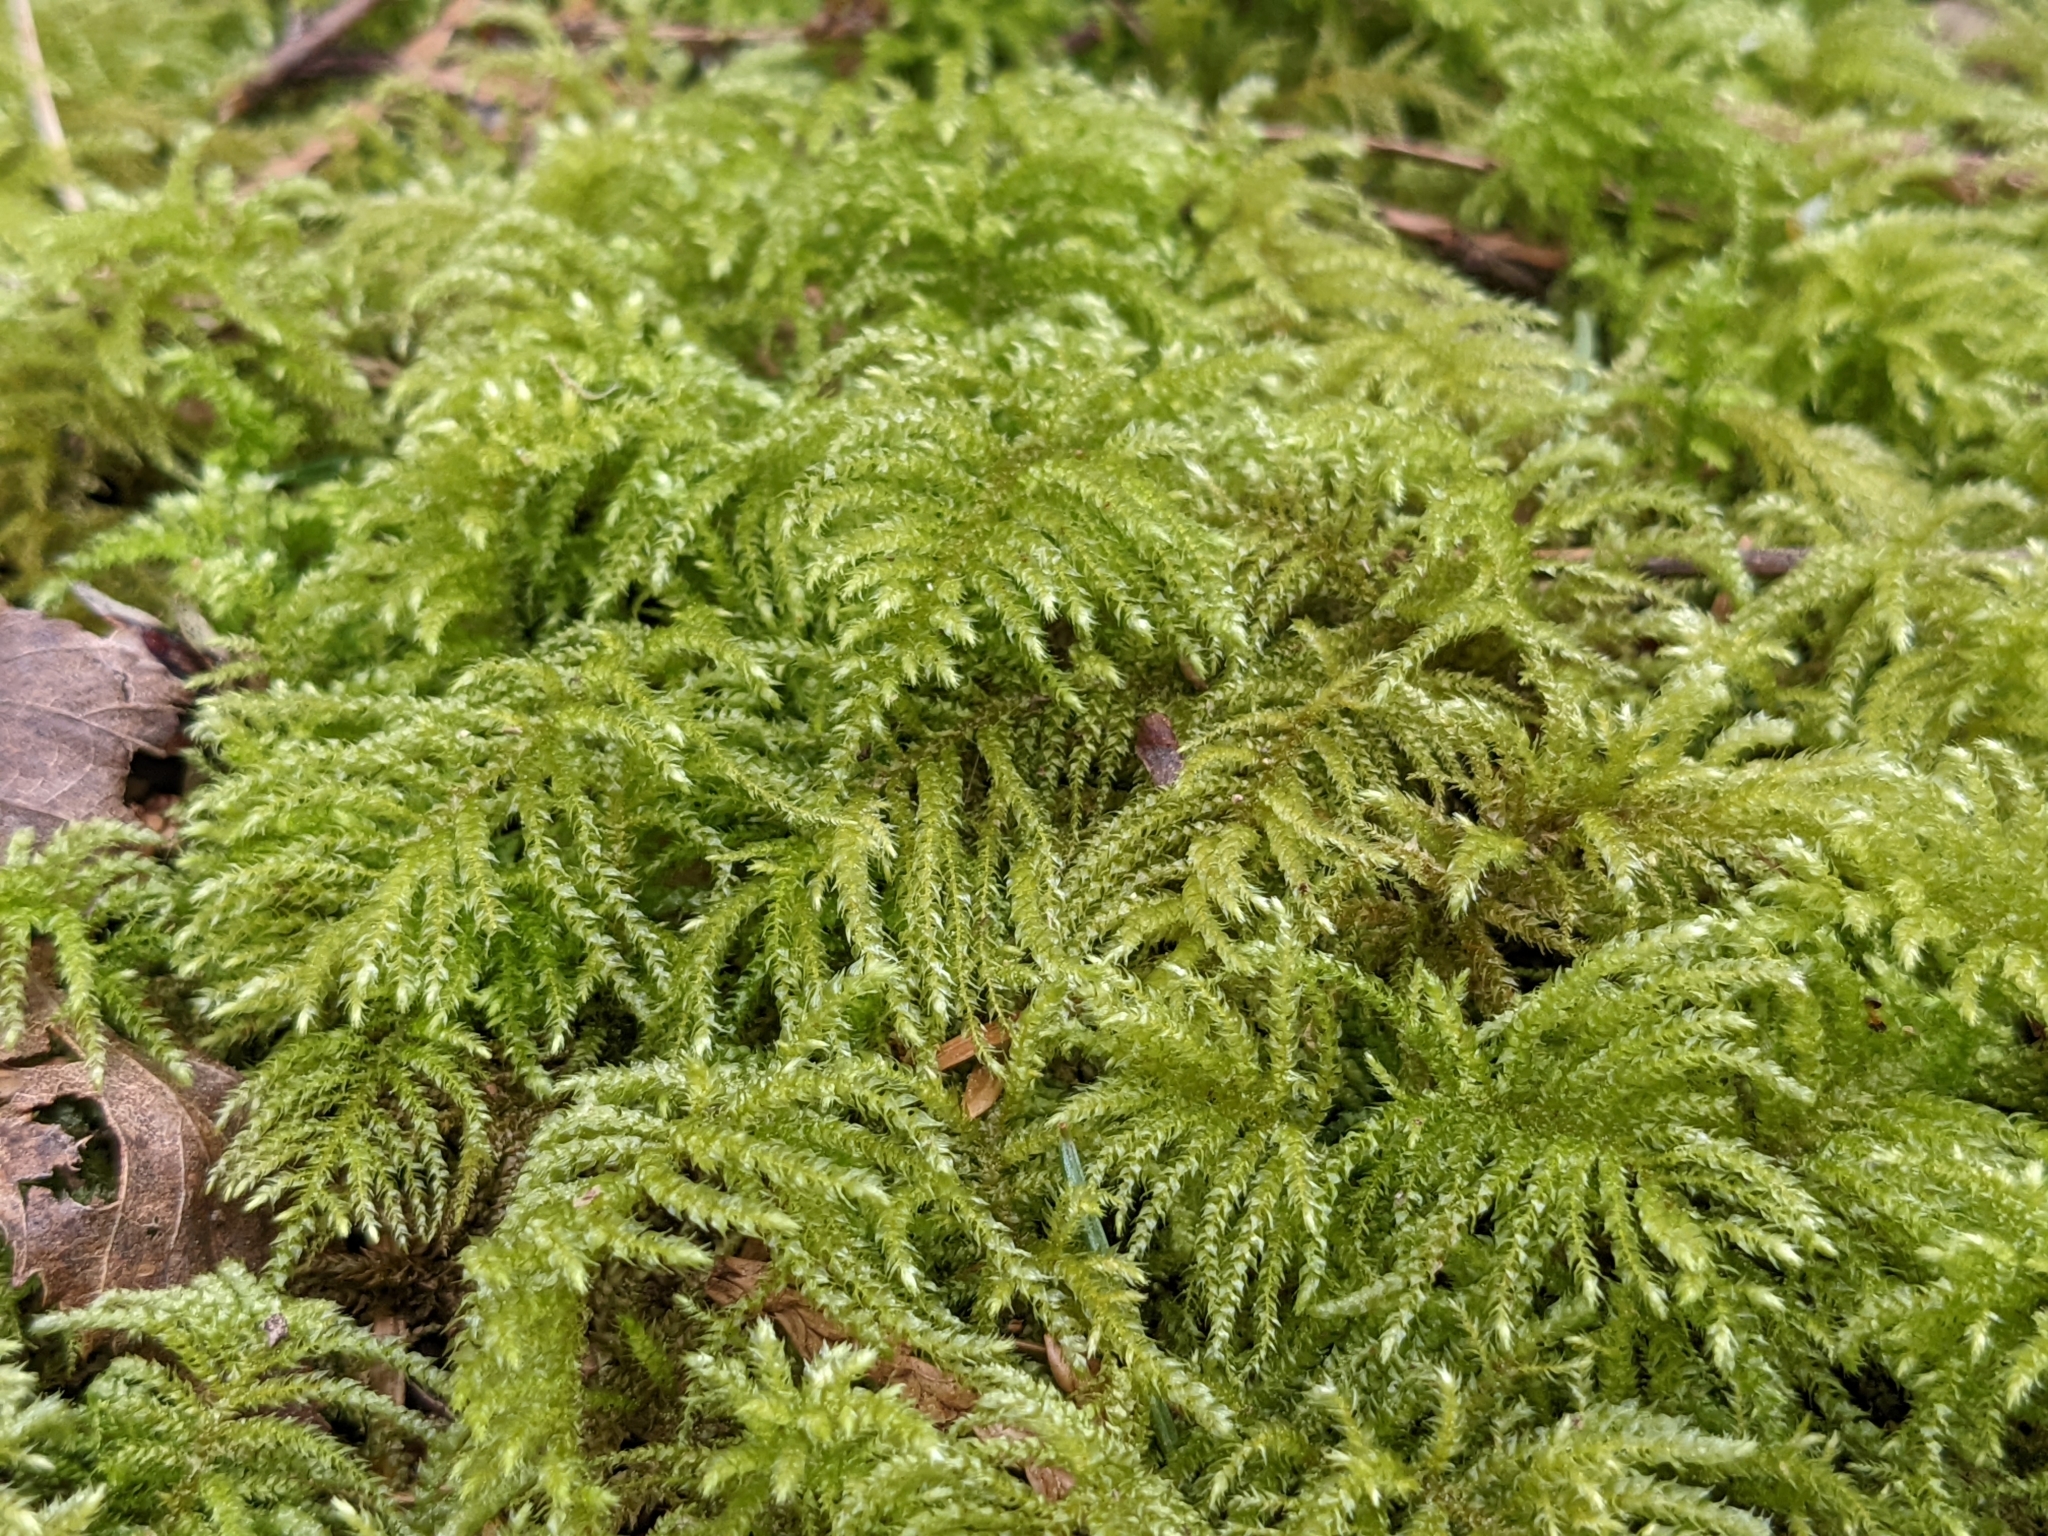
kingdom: Plantae
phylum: Bryophyta
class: Bryopsida
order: Hypnales
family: Brachytheciaceae
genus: Kindbergia
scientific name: Kindbergia oregana
